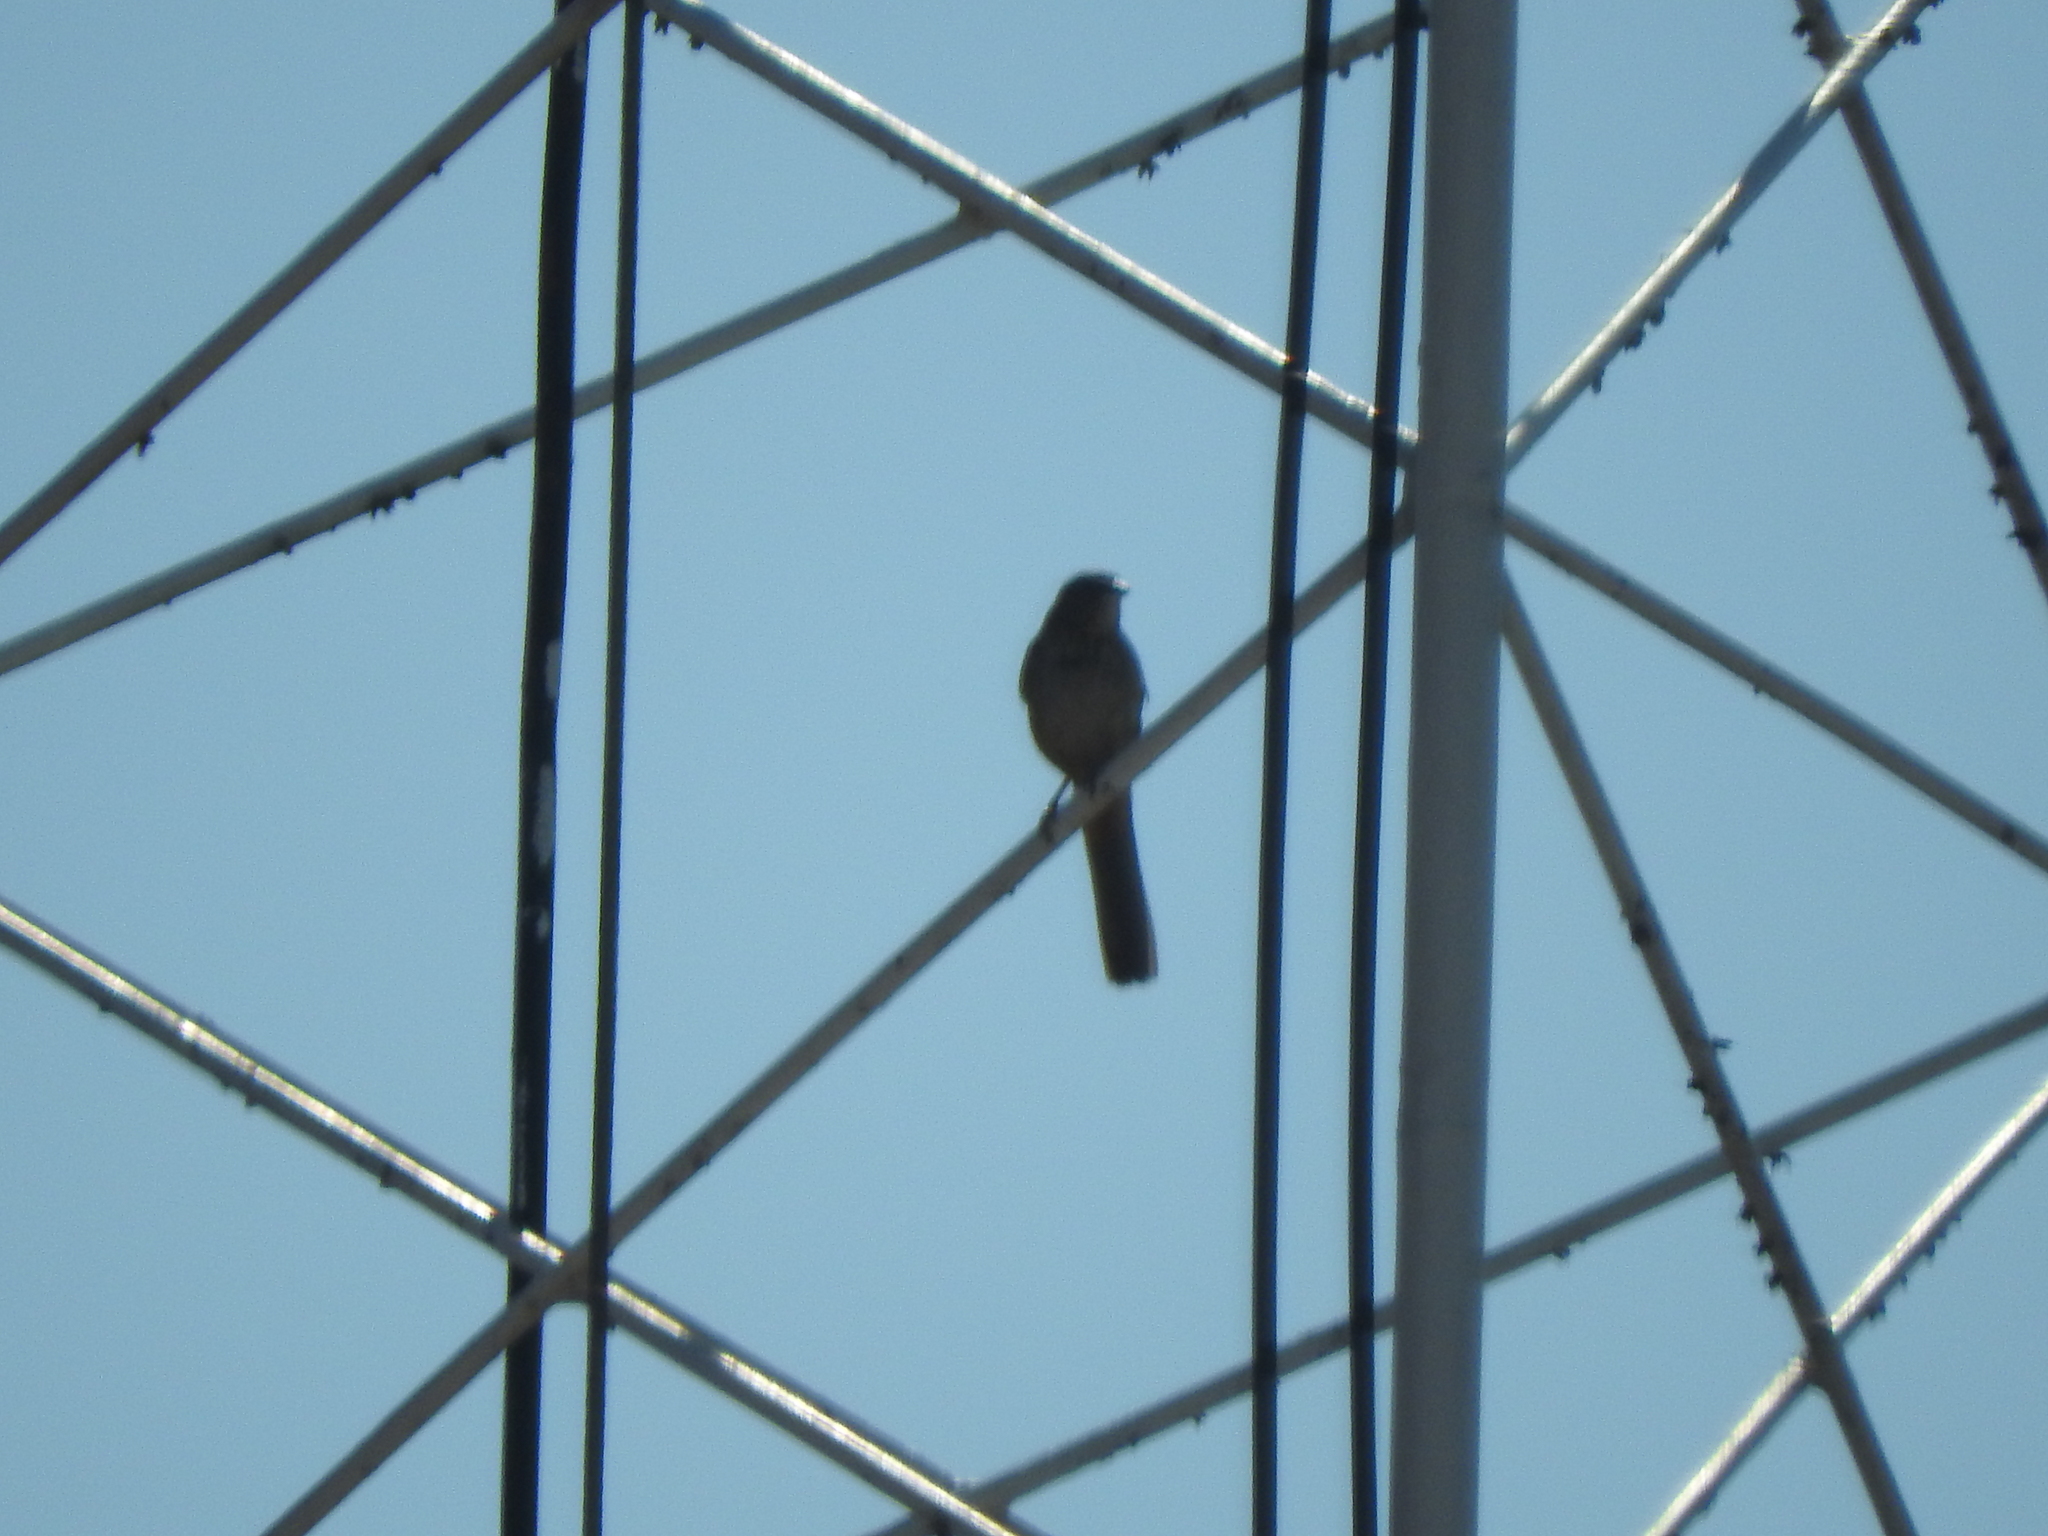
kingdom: Animalia
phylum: Chordata
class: Aves
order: Passeriformes
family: Passerellidae
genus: Melozone
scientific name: Melozone fusca
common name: Canyon towhee
